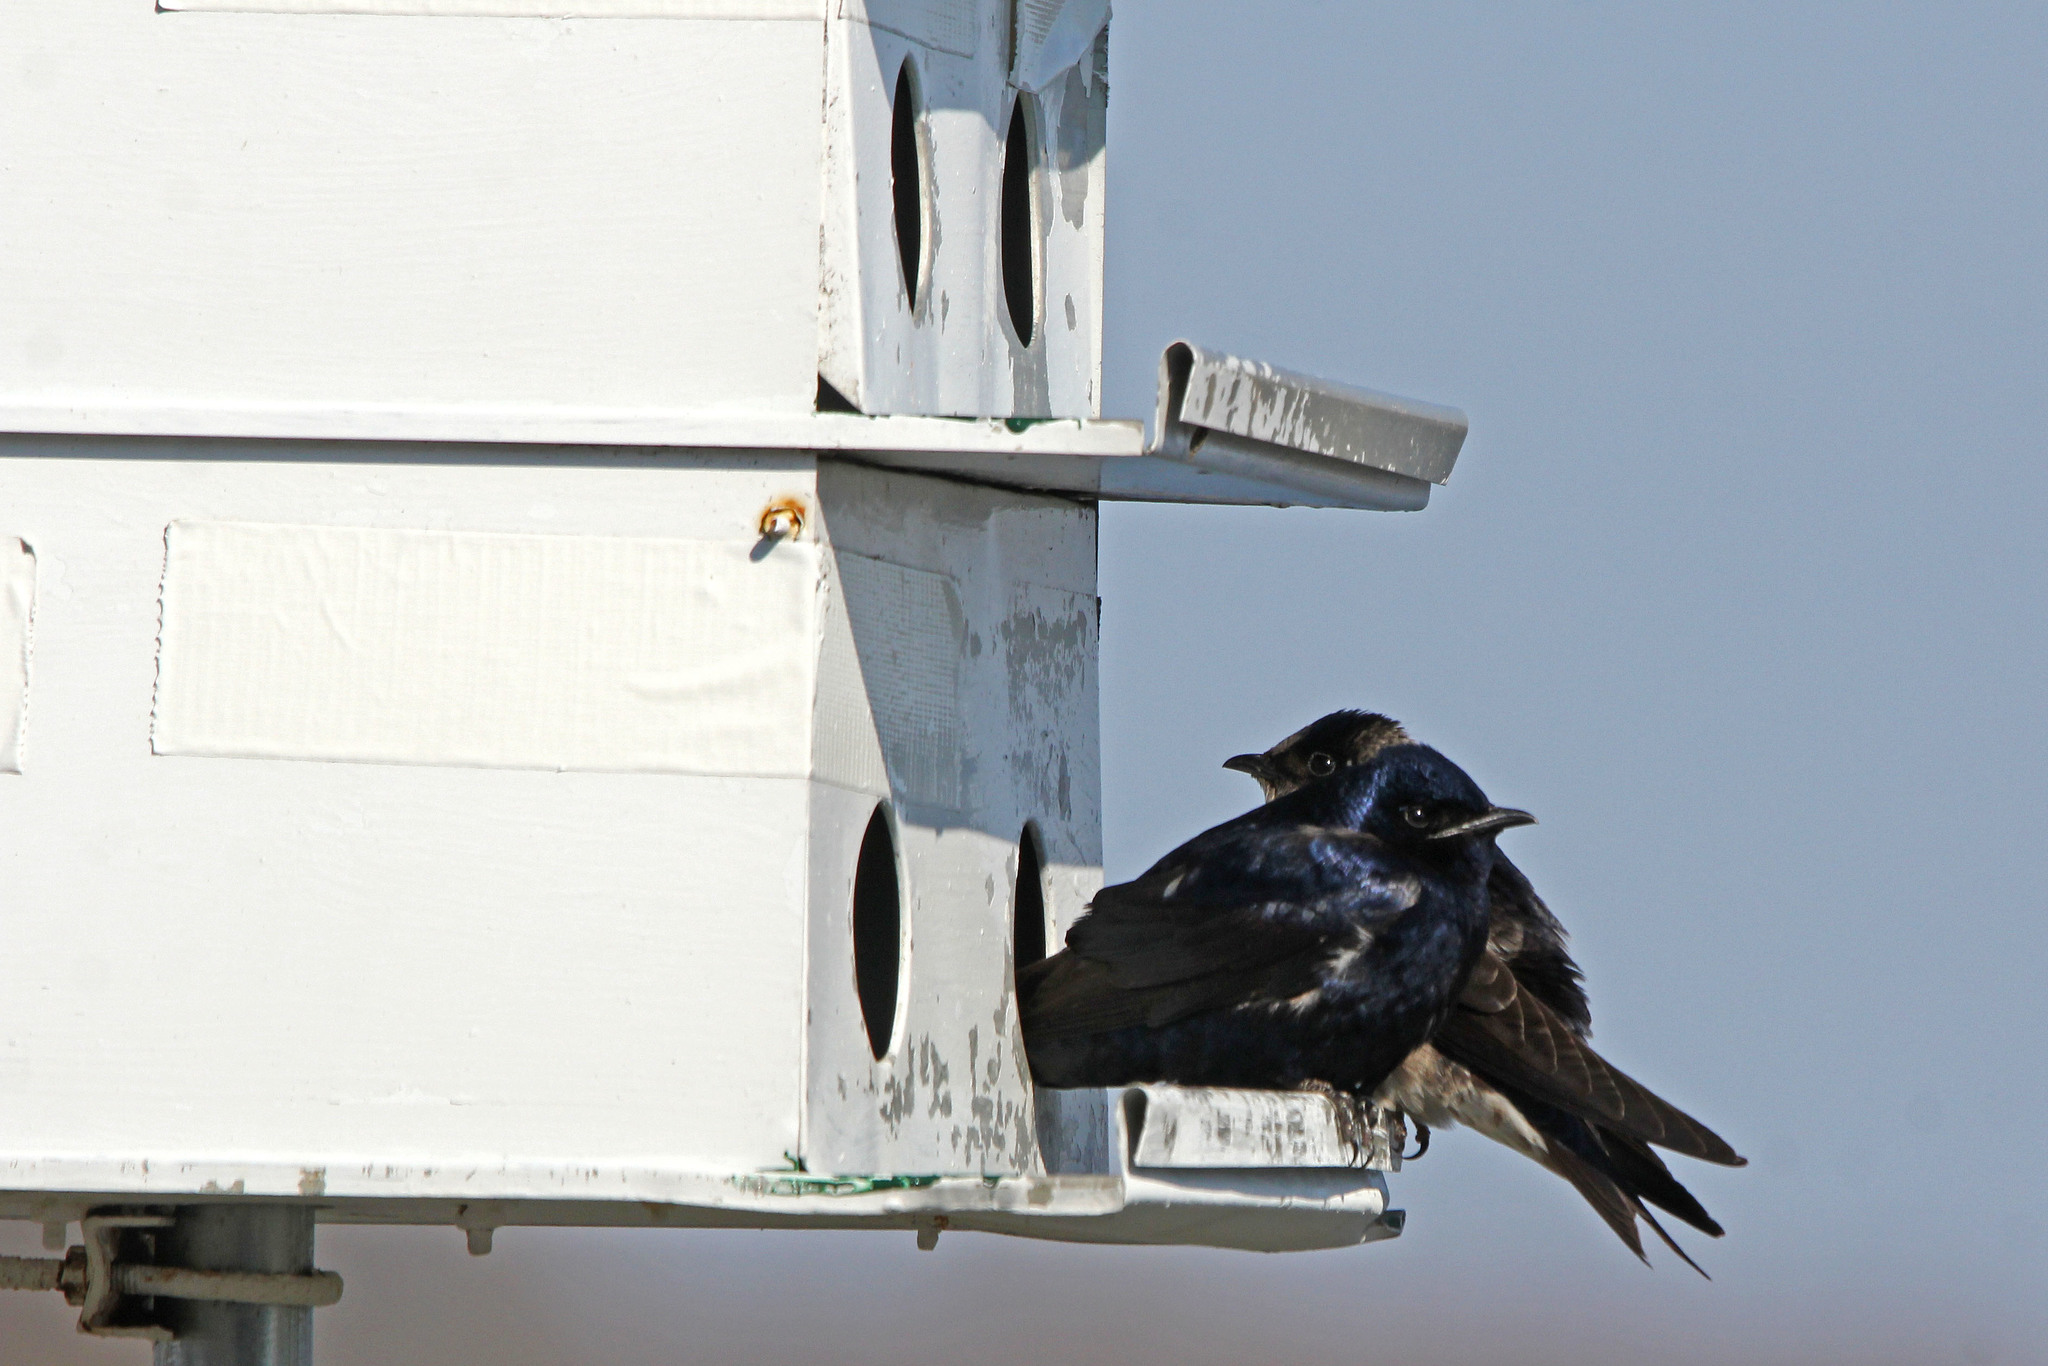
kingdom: Animalia
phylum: Chordata
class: Aves
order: Passeriformes
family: Hirundinidae
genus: Progne
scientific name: Progne subis
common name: Purple martin
